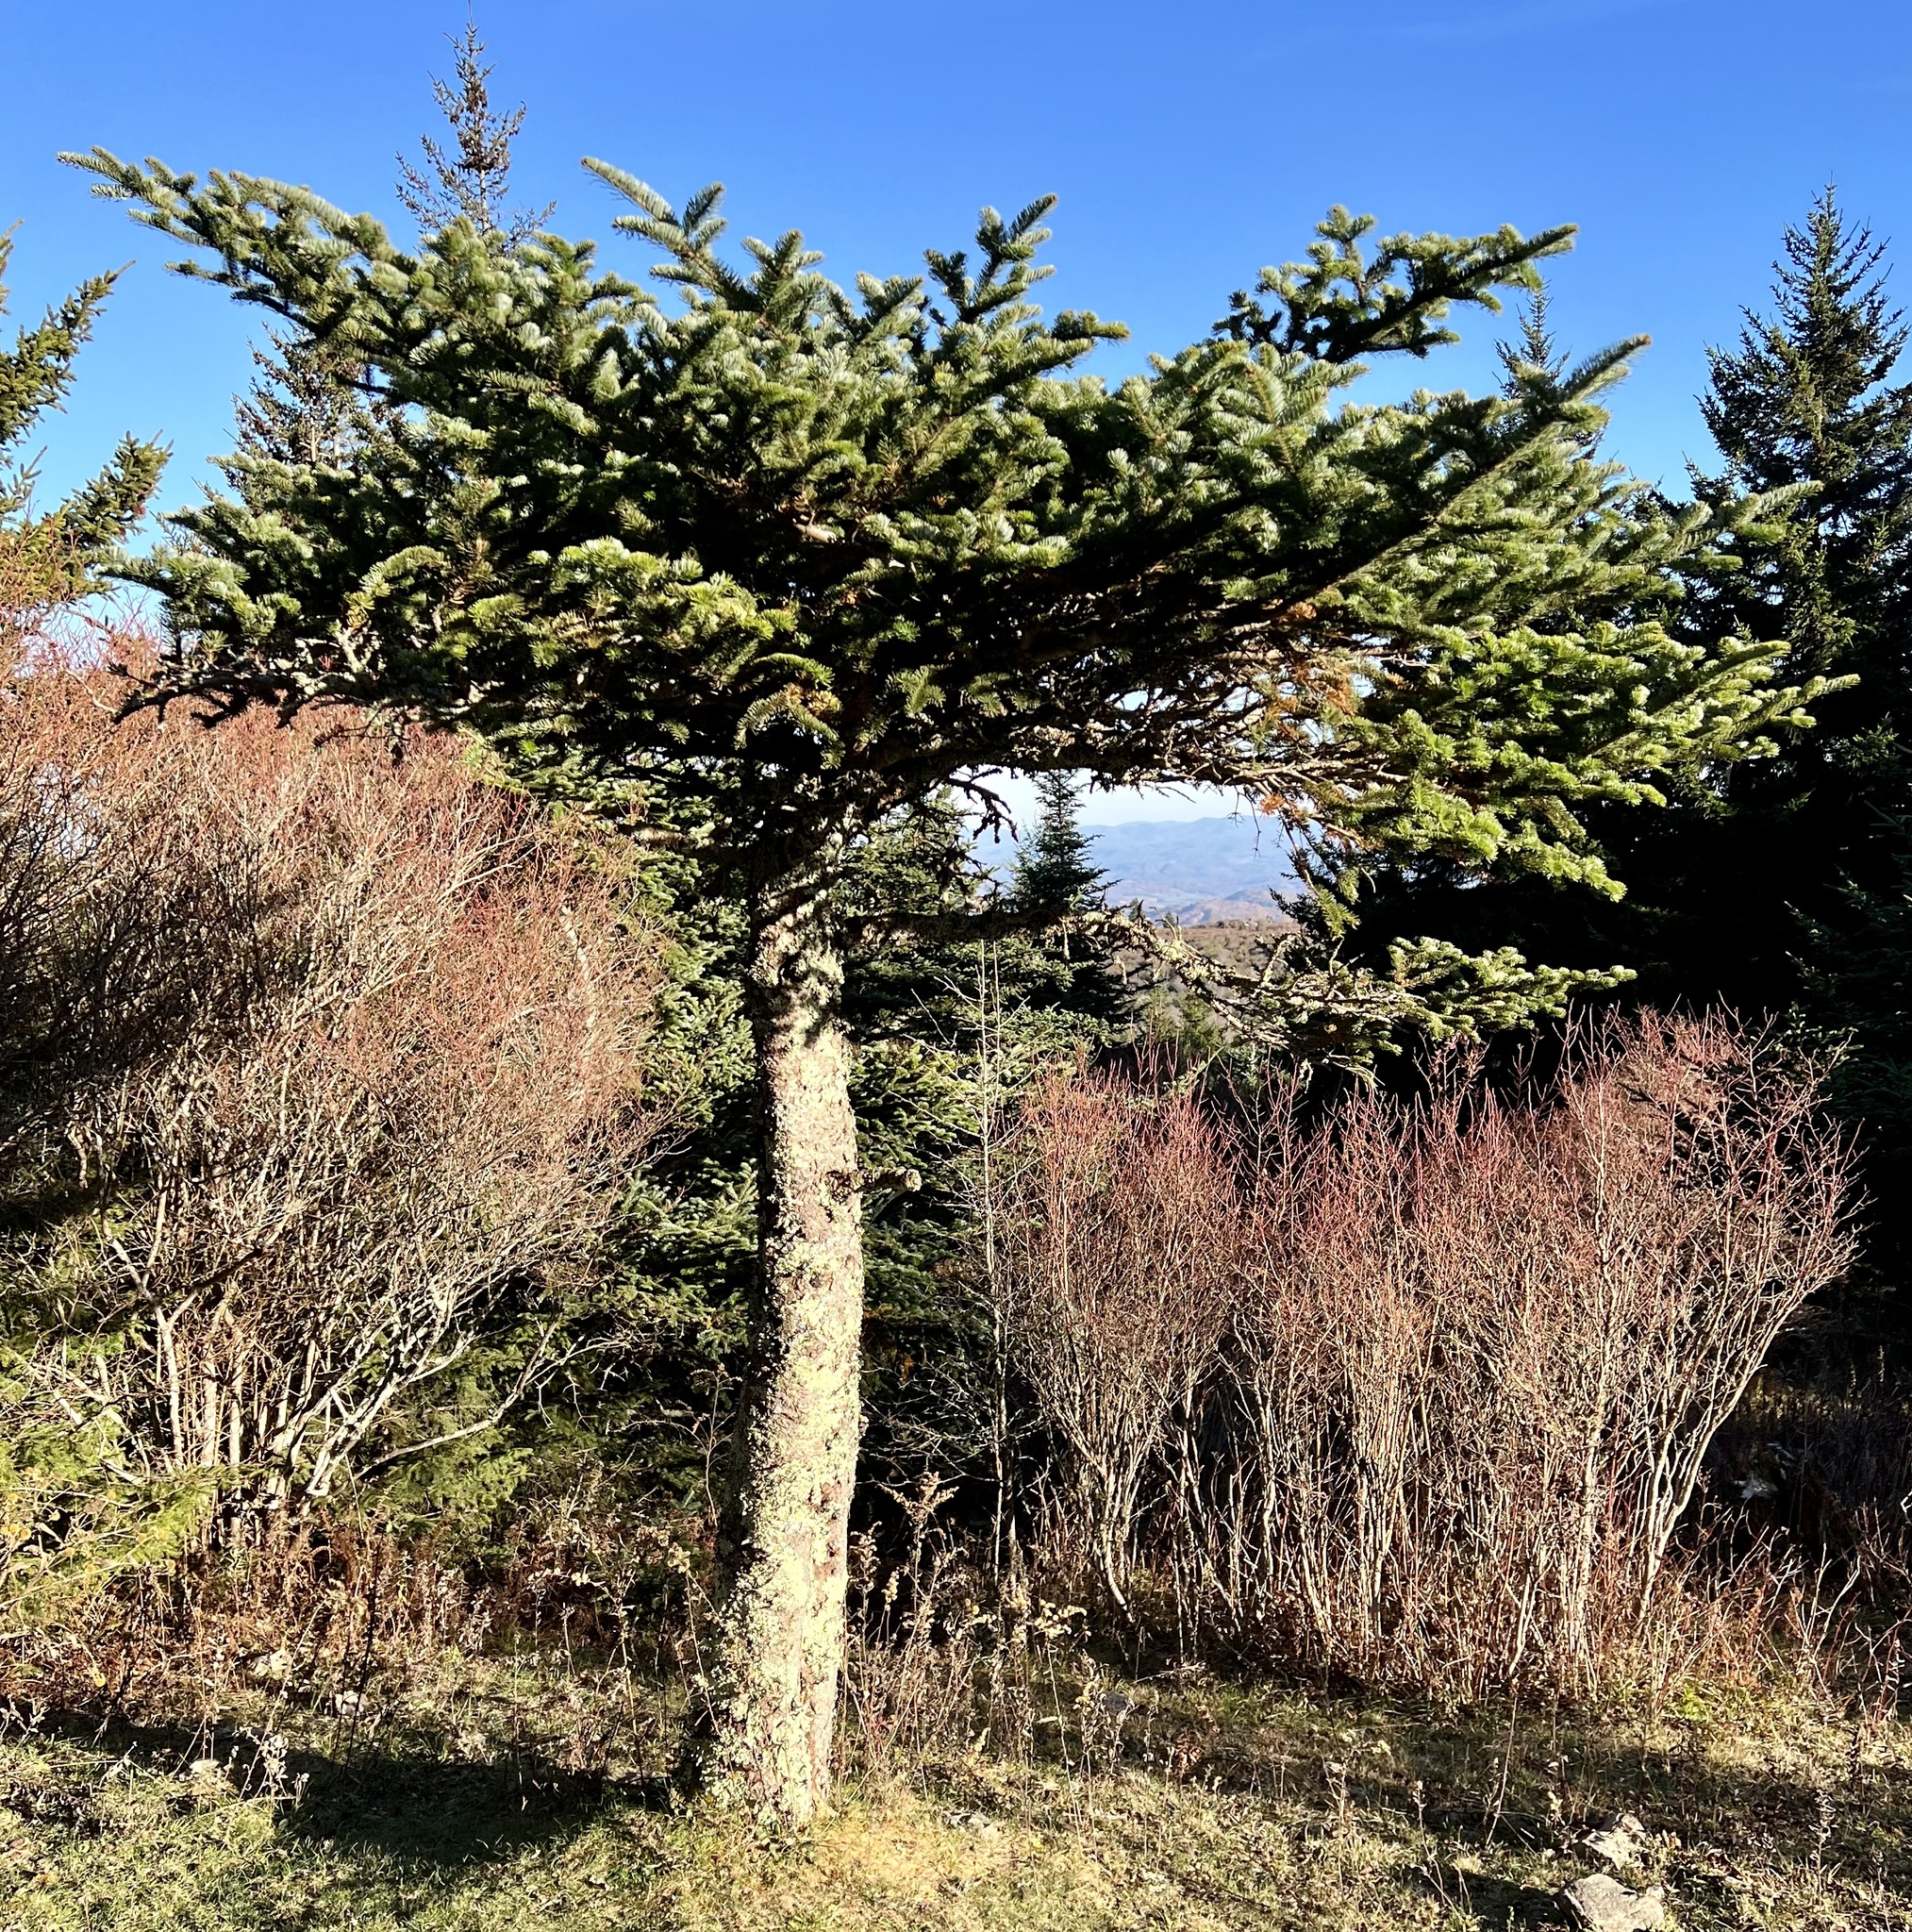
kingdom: Plantae
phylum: Tracheophyta
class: Pinopsida
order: Pinales
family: Pinaceae
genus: Abies
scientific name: Abies fraseri
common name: Fraser fir
